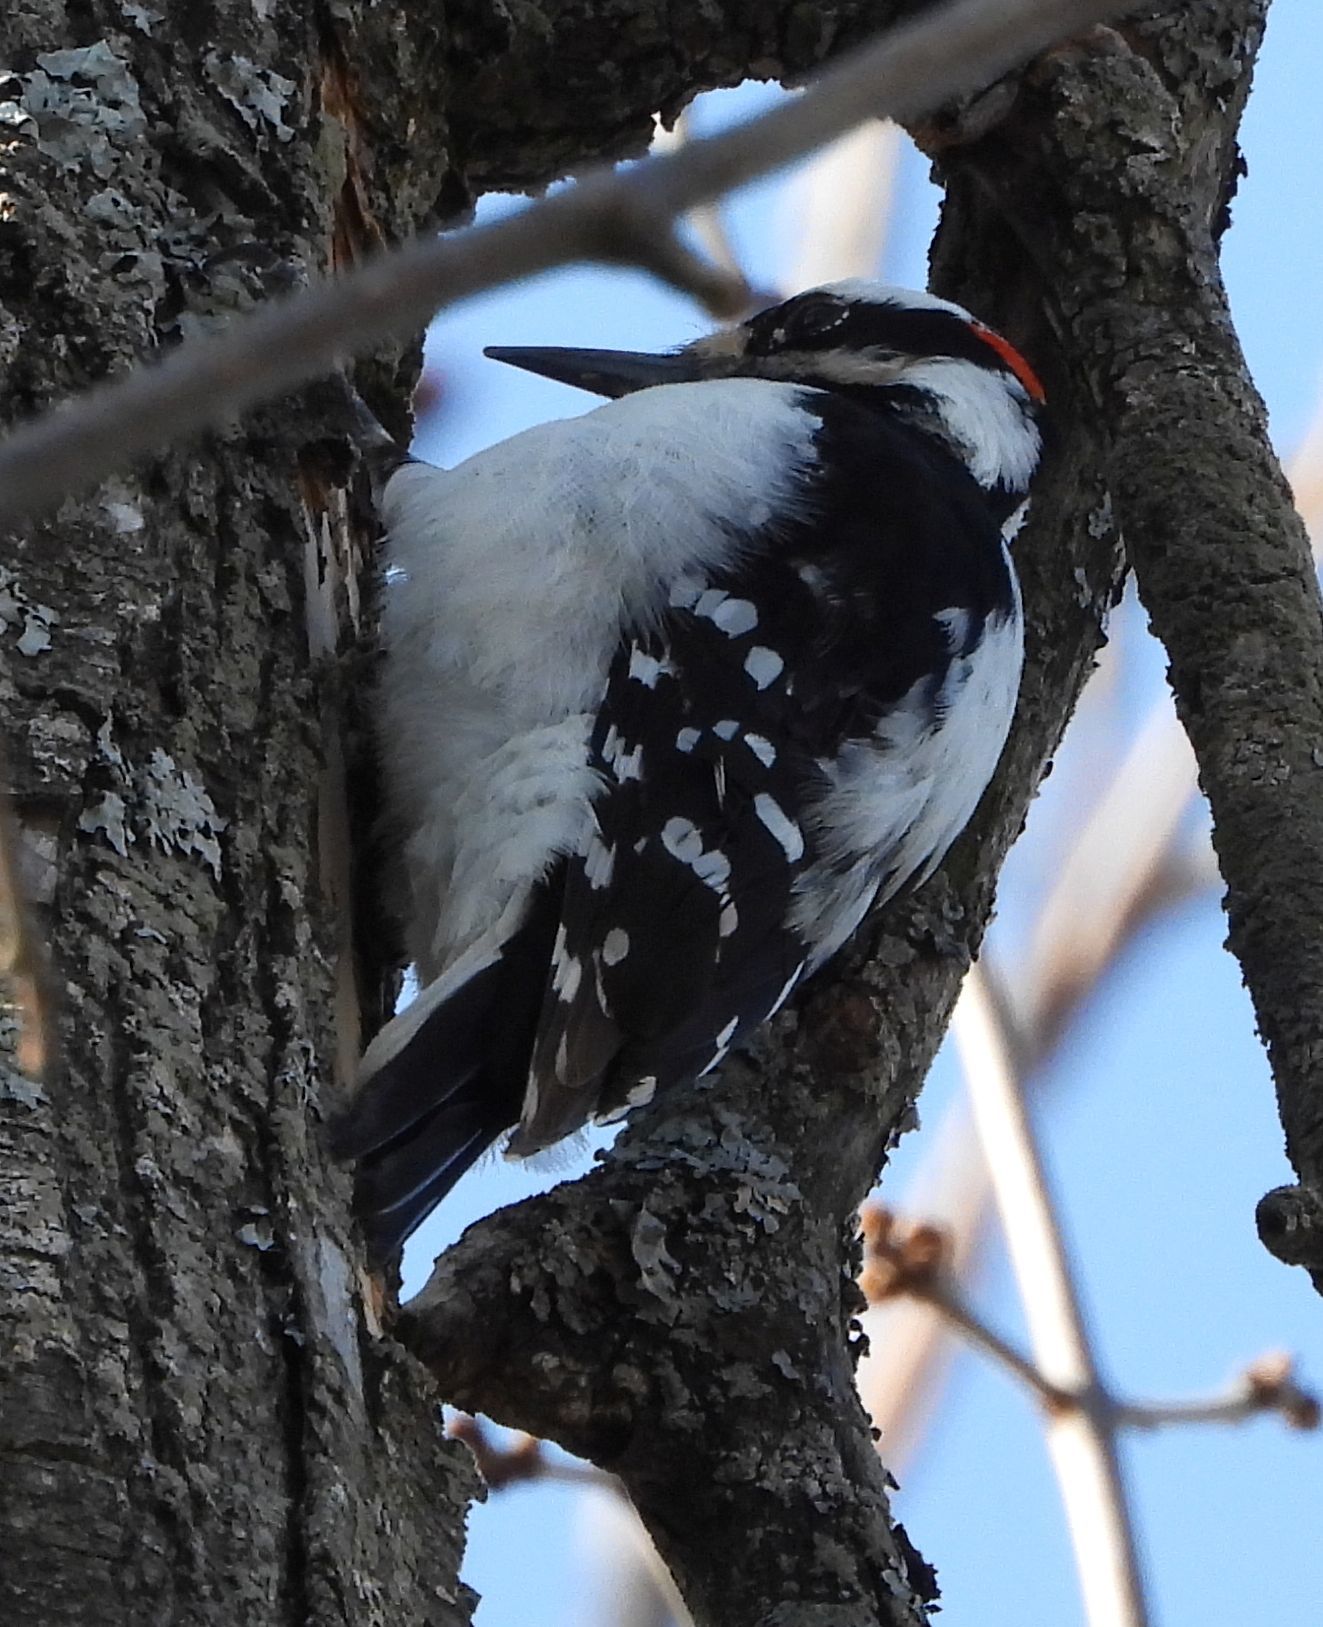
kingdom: Animalia
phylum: Chordata
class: Aves
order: Piciformes
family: Picidae
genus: Leuconotopicus
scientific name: Leuconotopicus villosus
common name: Hairy woodpecker
